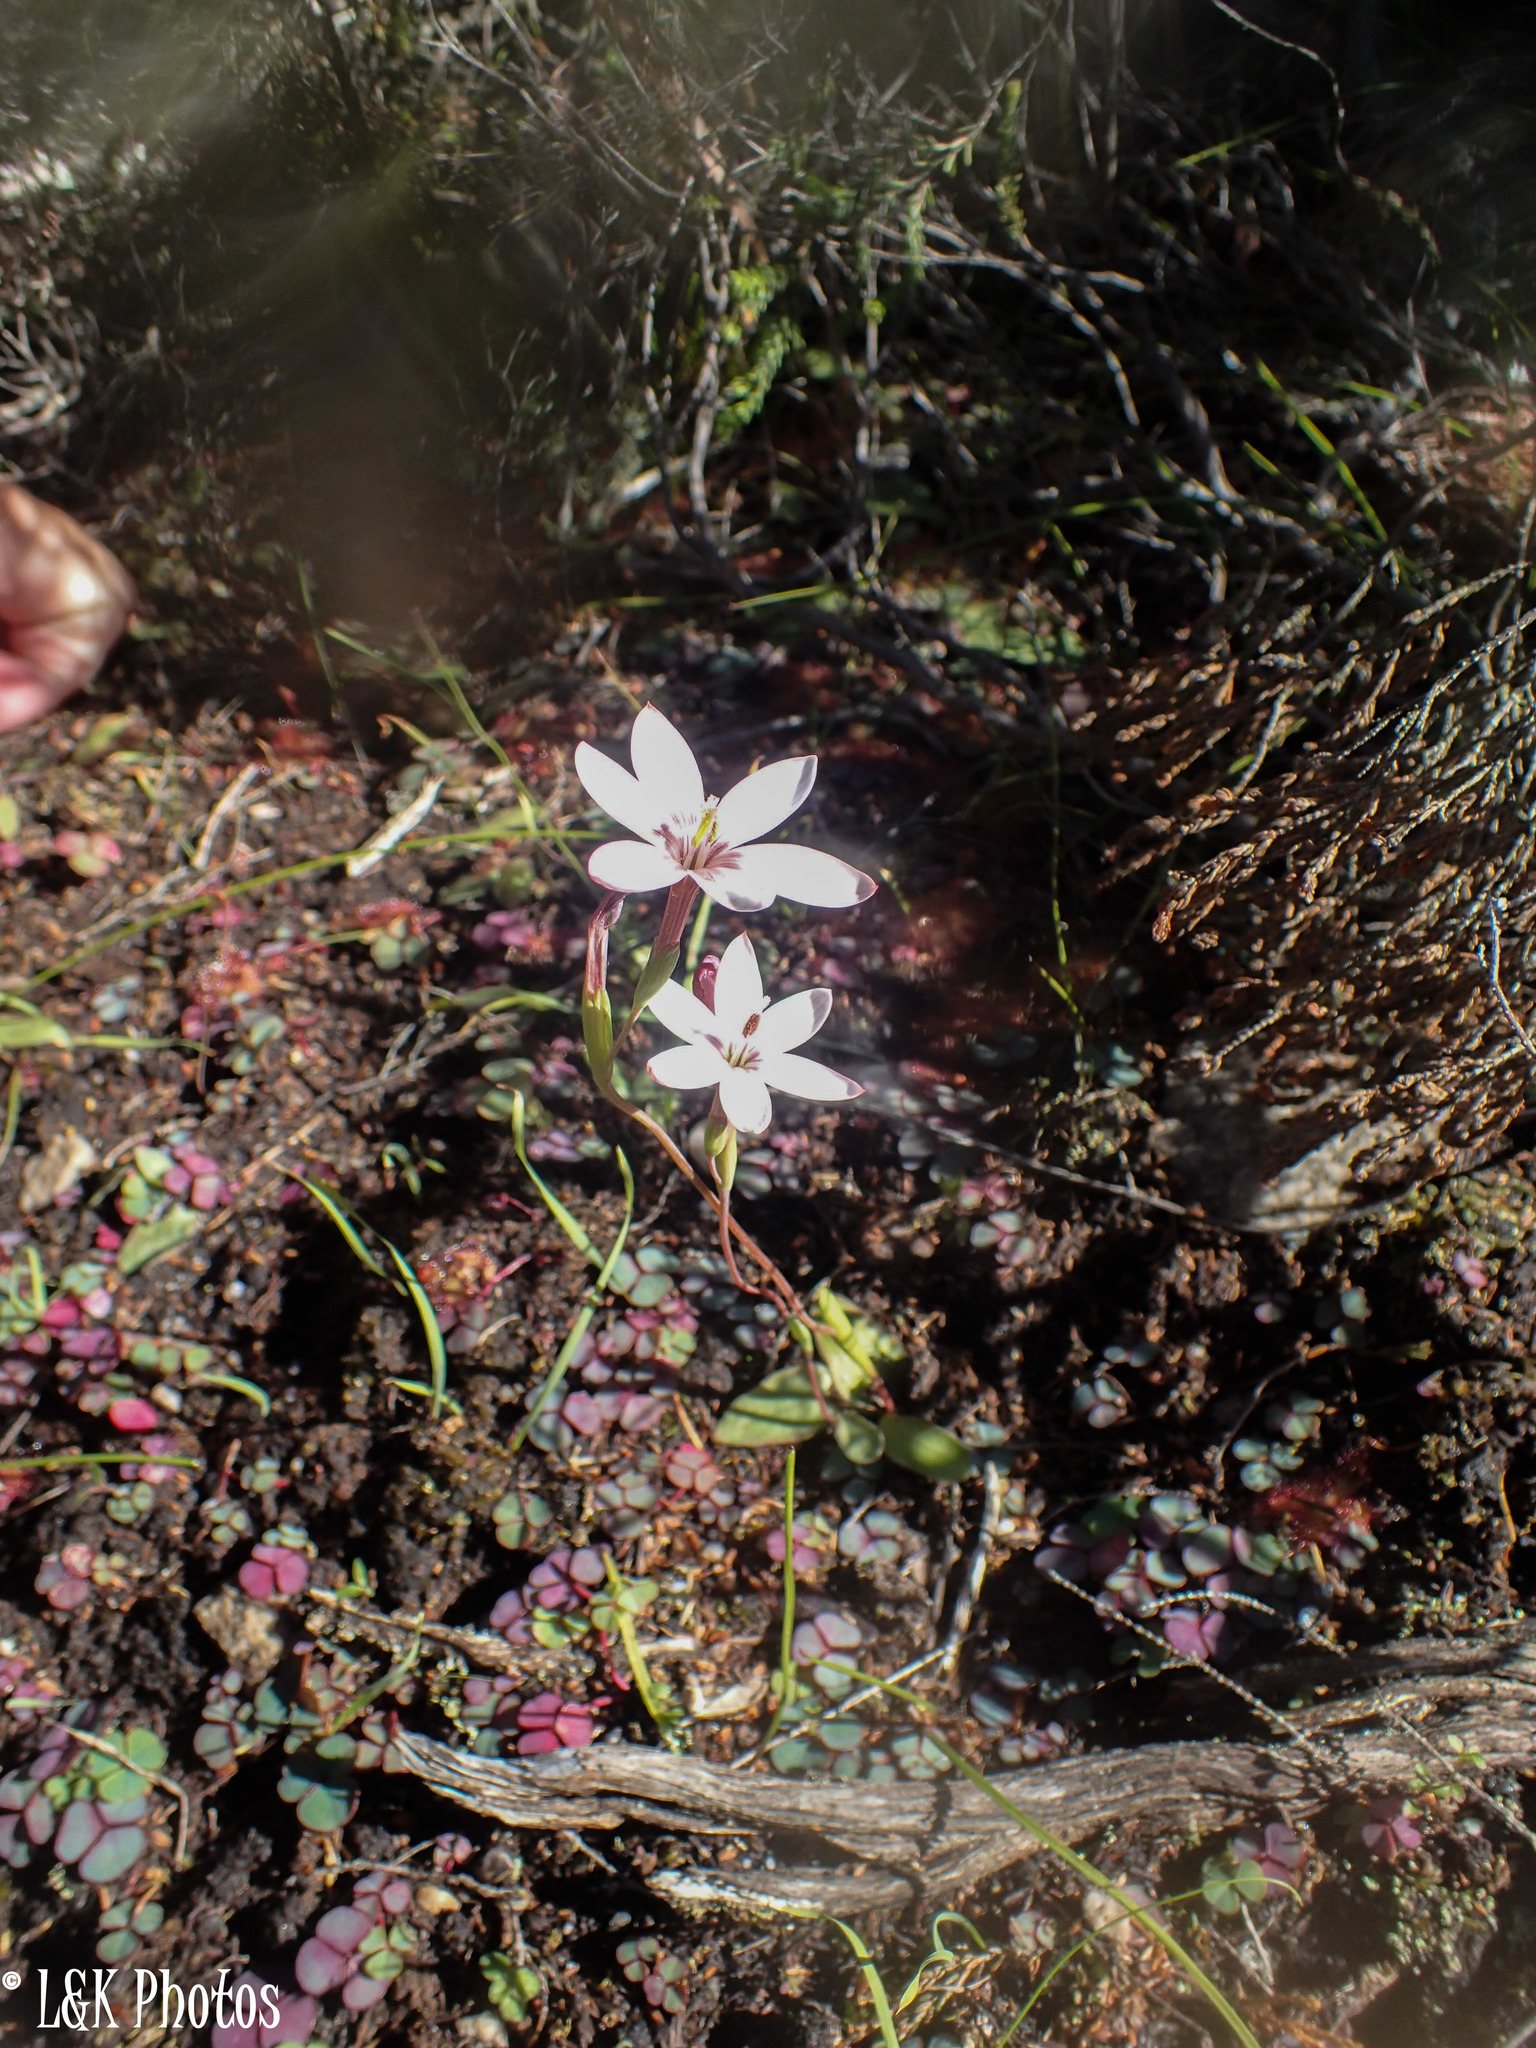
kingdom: Plantae
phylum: Tracheophyta
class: Liliopsida
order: Asparagales
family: Iridaceae
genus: Geissorhiza
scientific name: Geissorhiza ovata
